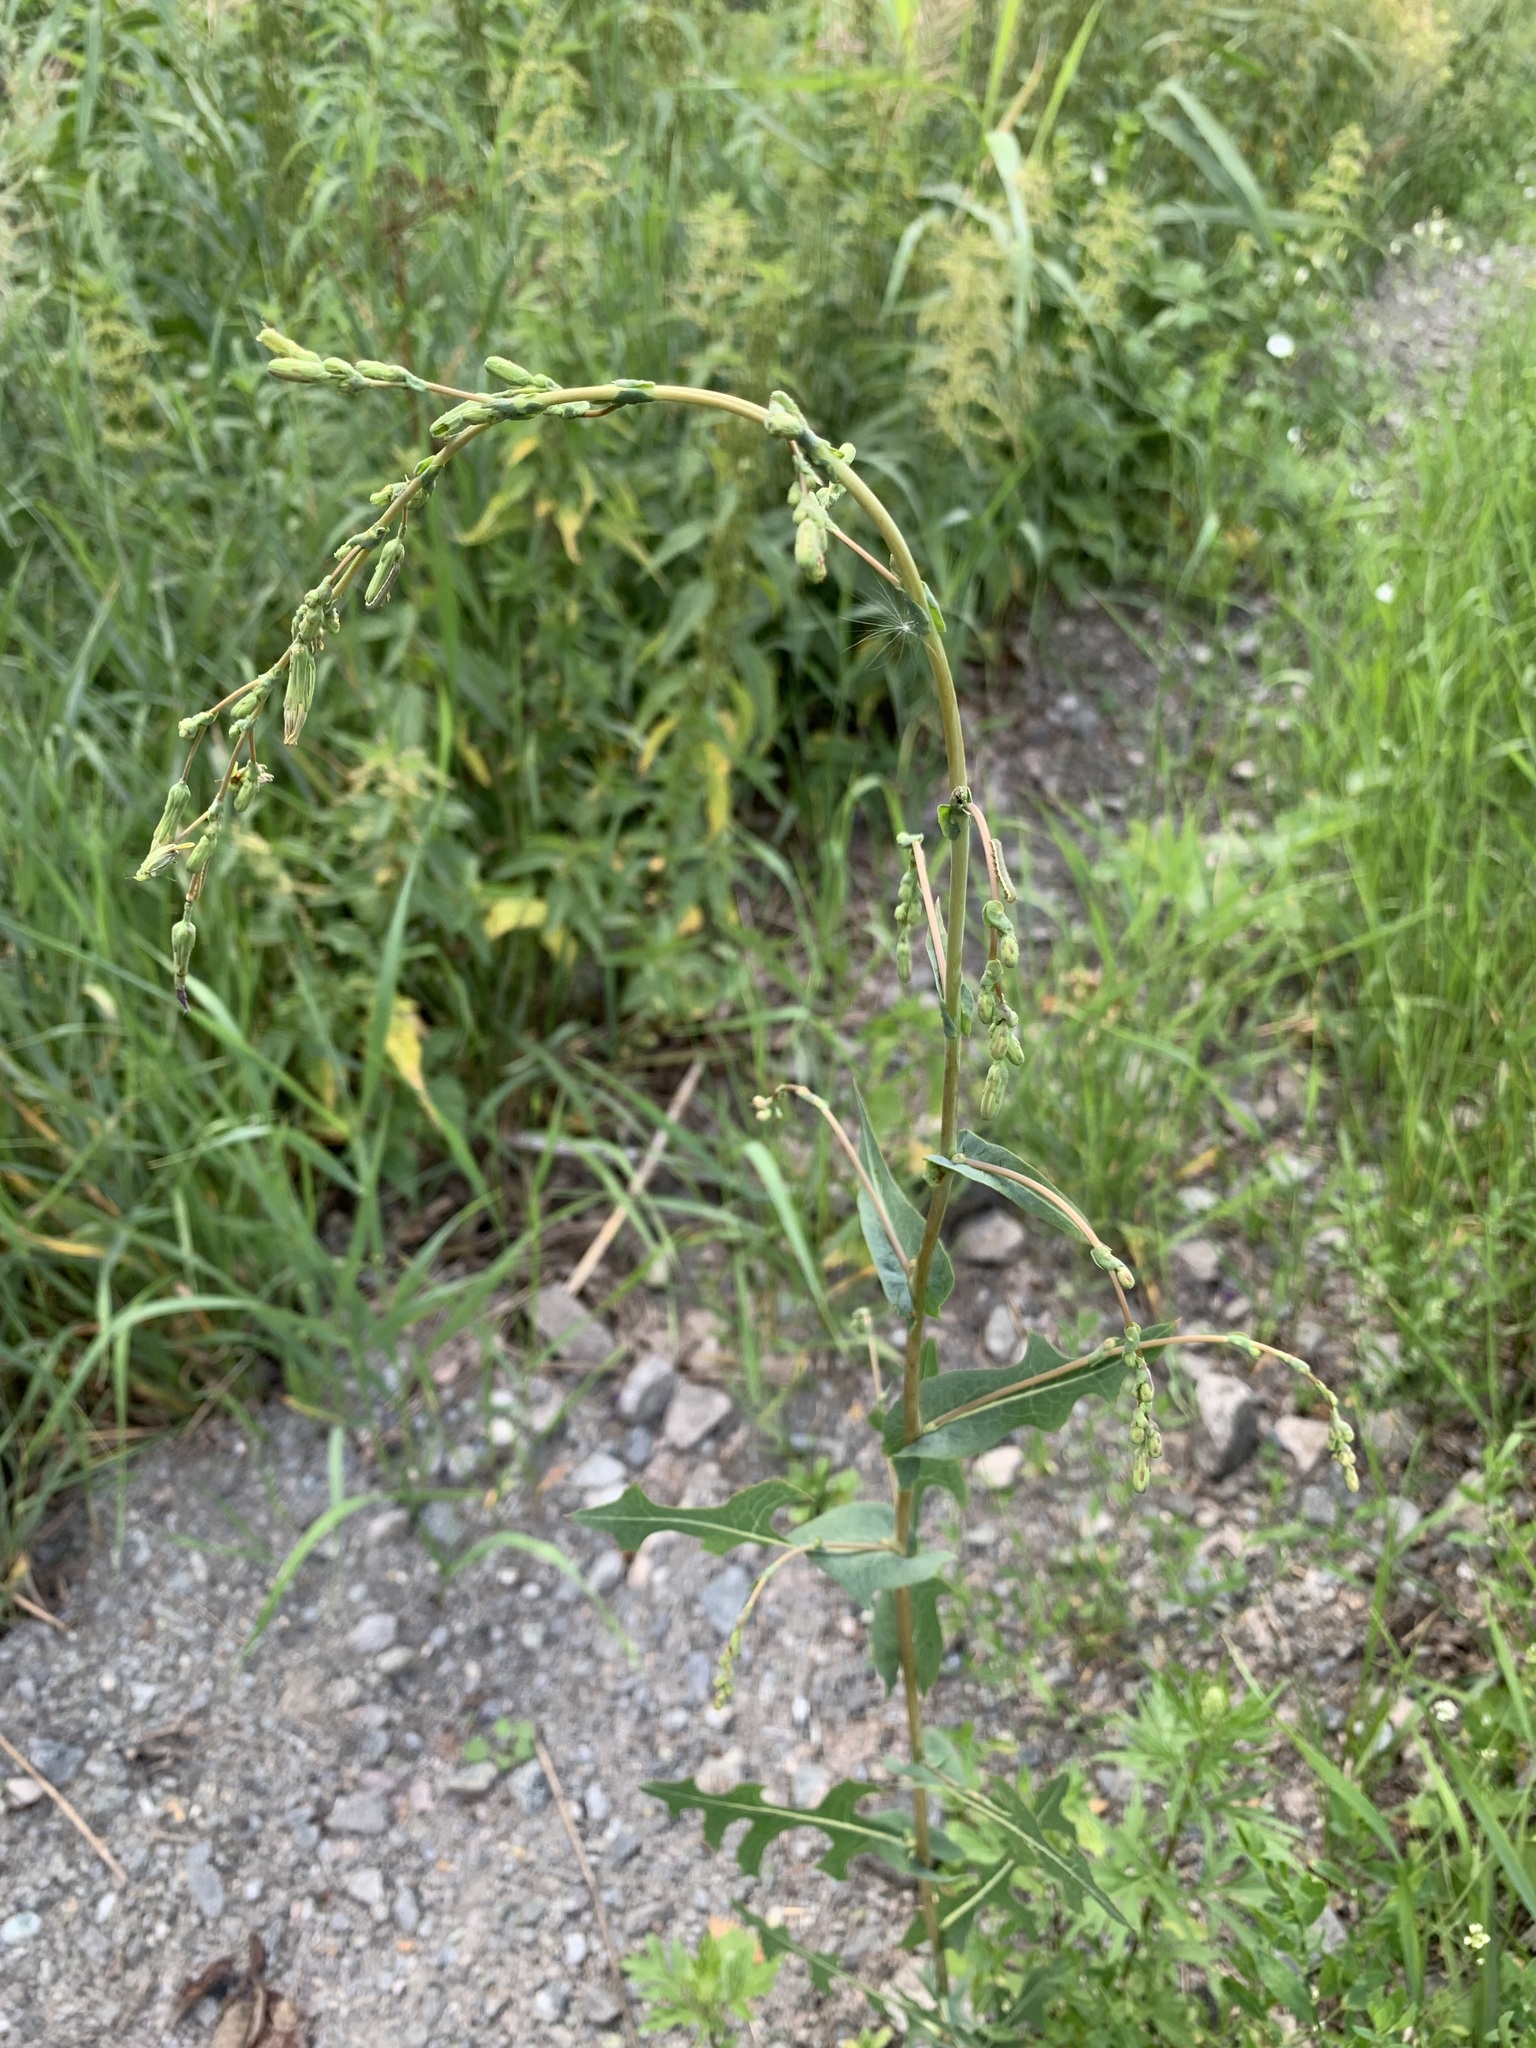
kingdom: Plantae
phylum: Tracheophyta
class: Magnoliopsida
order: Asterales
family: Asteraceae
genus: Lactuca
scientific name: Lactuca serriola
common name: Prickly lettuce
